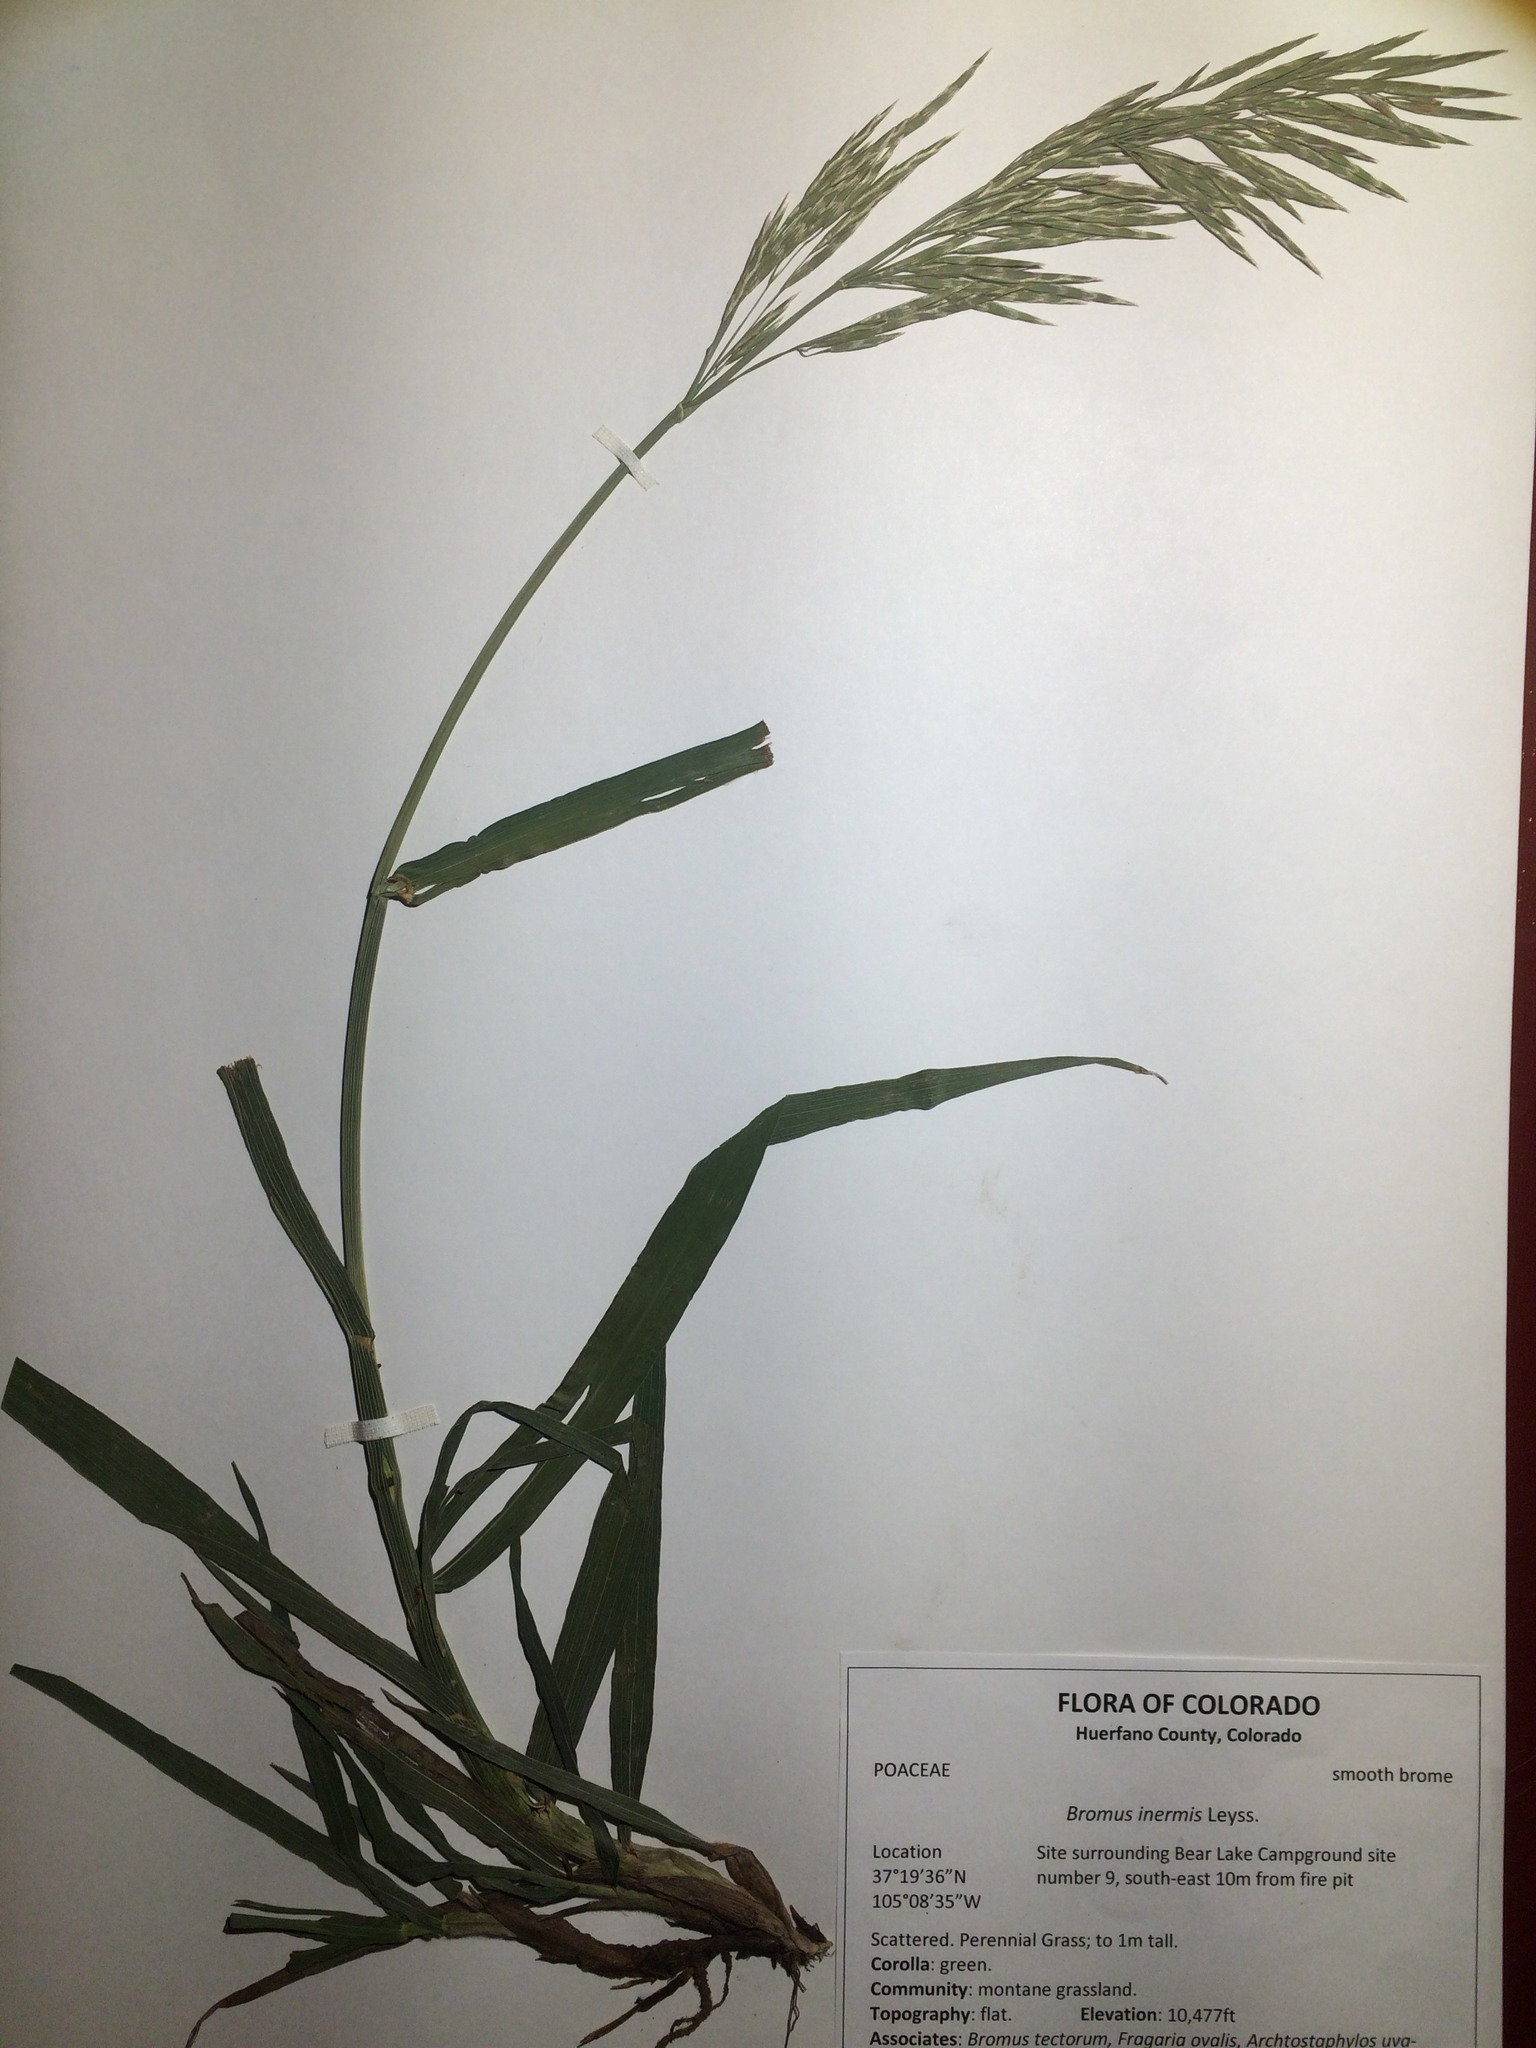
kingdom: Plantae
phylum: Tracheophyta
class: Liliopsida
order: Poales
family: Poaceae
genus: Bromus
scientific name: Bromus inermis
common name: Smooth brome
